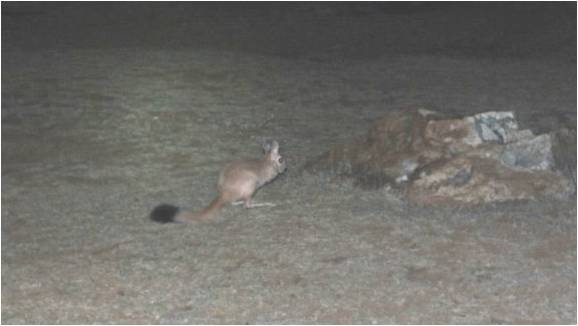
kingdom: Animalia
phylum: Chordata
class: Mammalia
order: Rodentia
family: Pedetidae
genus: Pedetes
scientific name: Pedetes capensis
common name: South african spring hare
